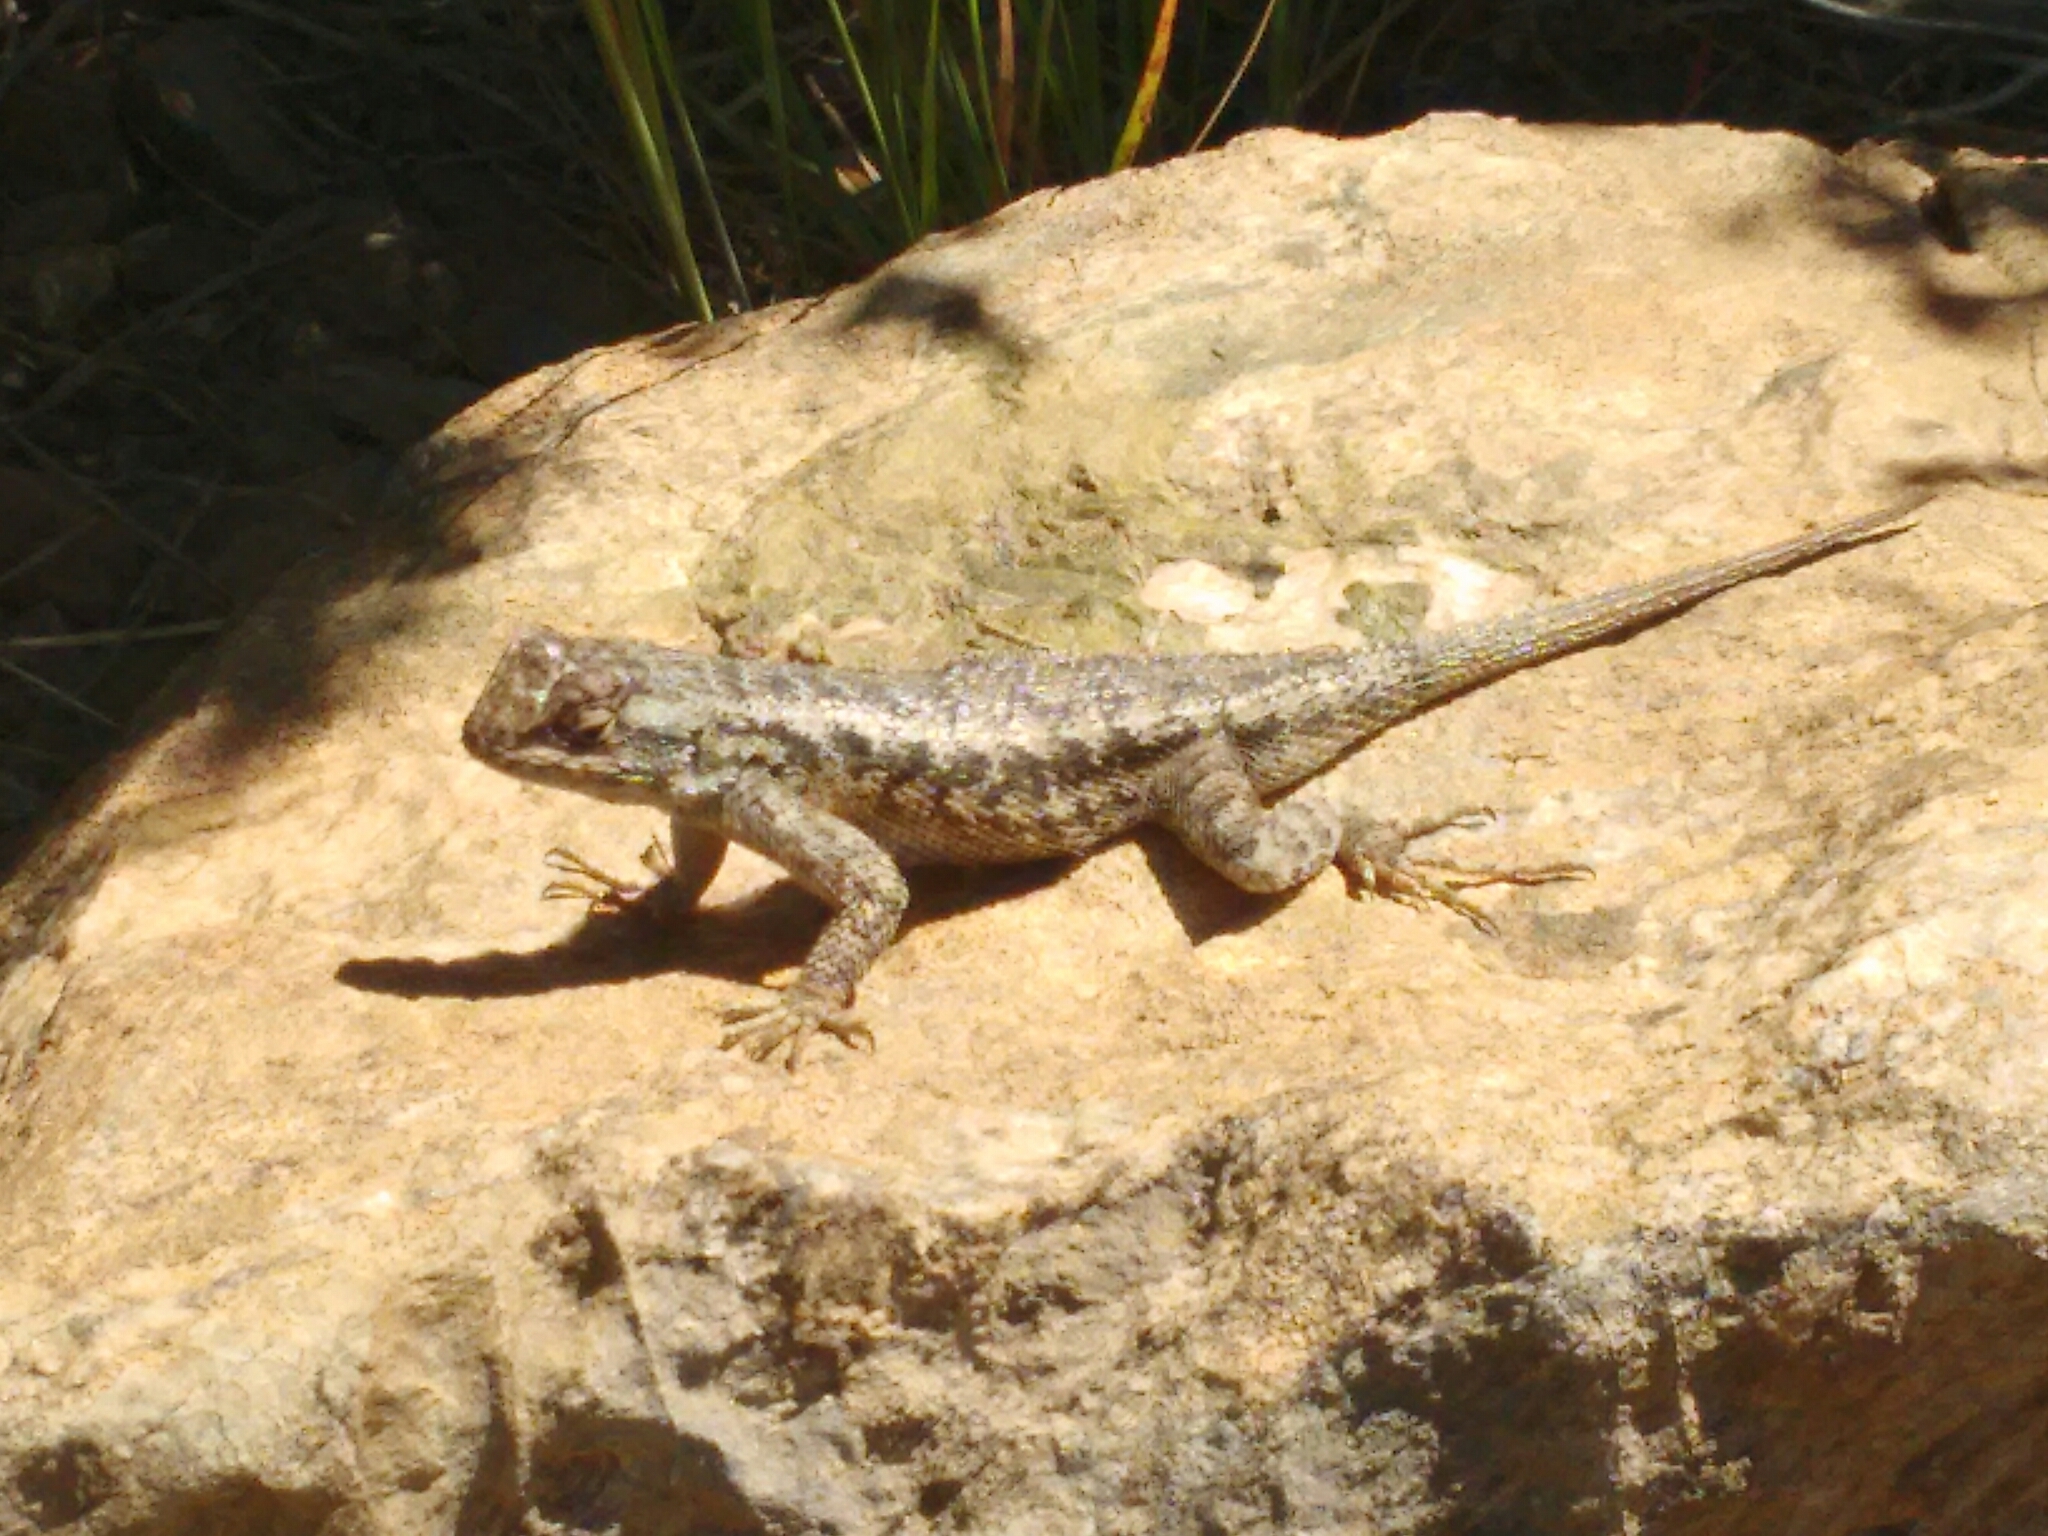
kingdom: Animalia
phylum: Chordata
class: Squamata
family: Phrynosomatidae
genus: Sceloporus
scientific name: Sceloporus occidentalis
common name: Western fence lizard
